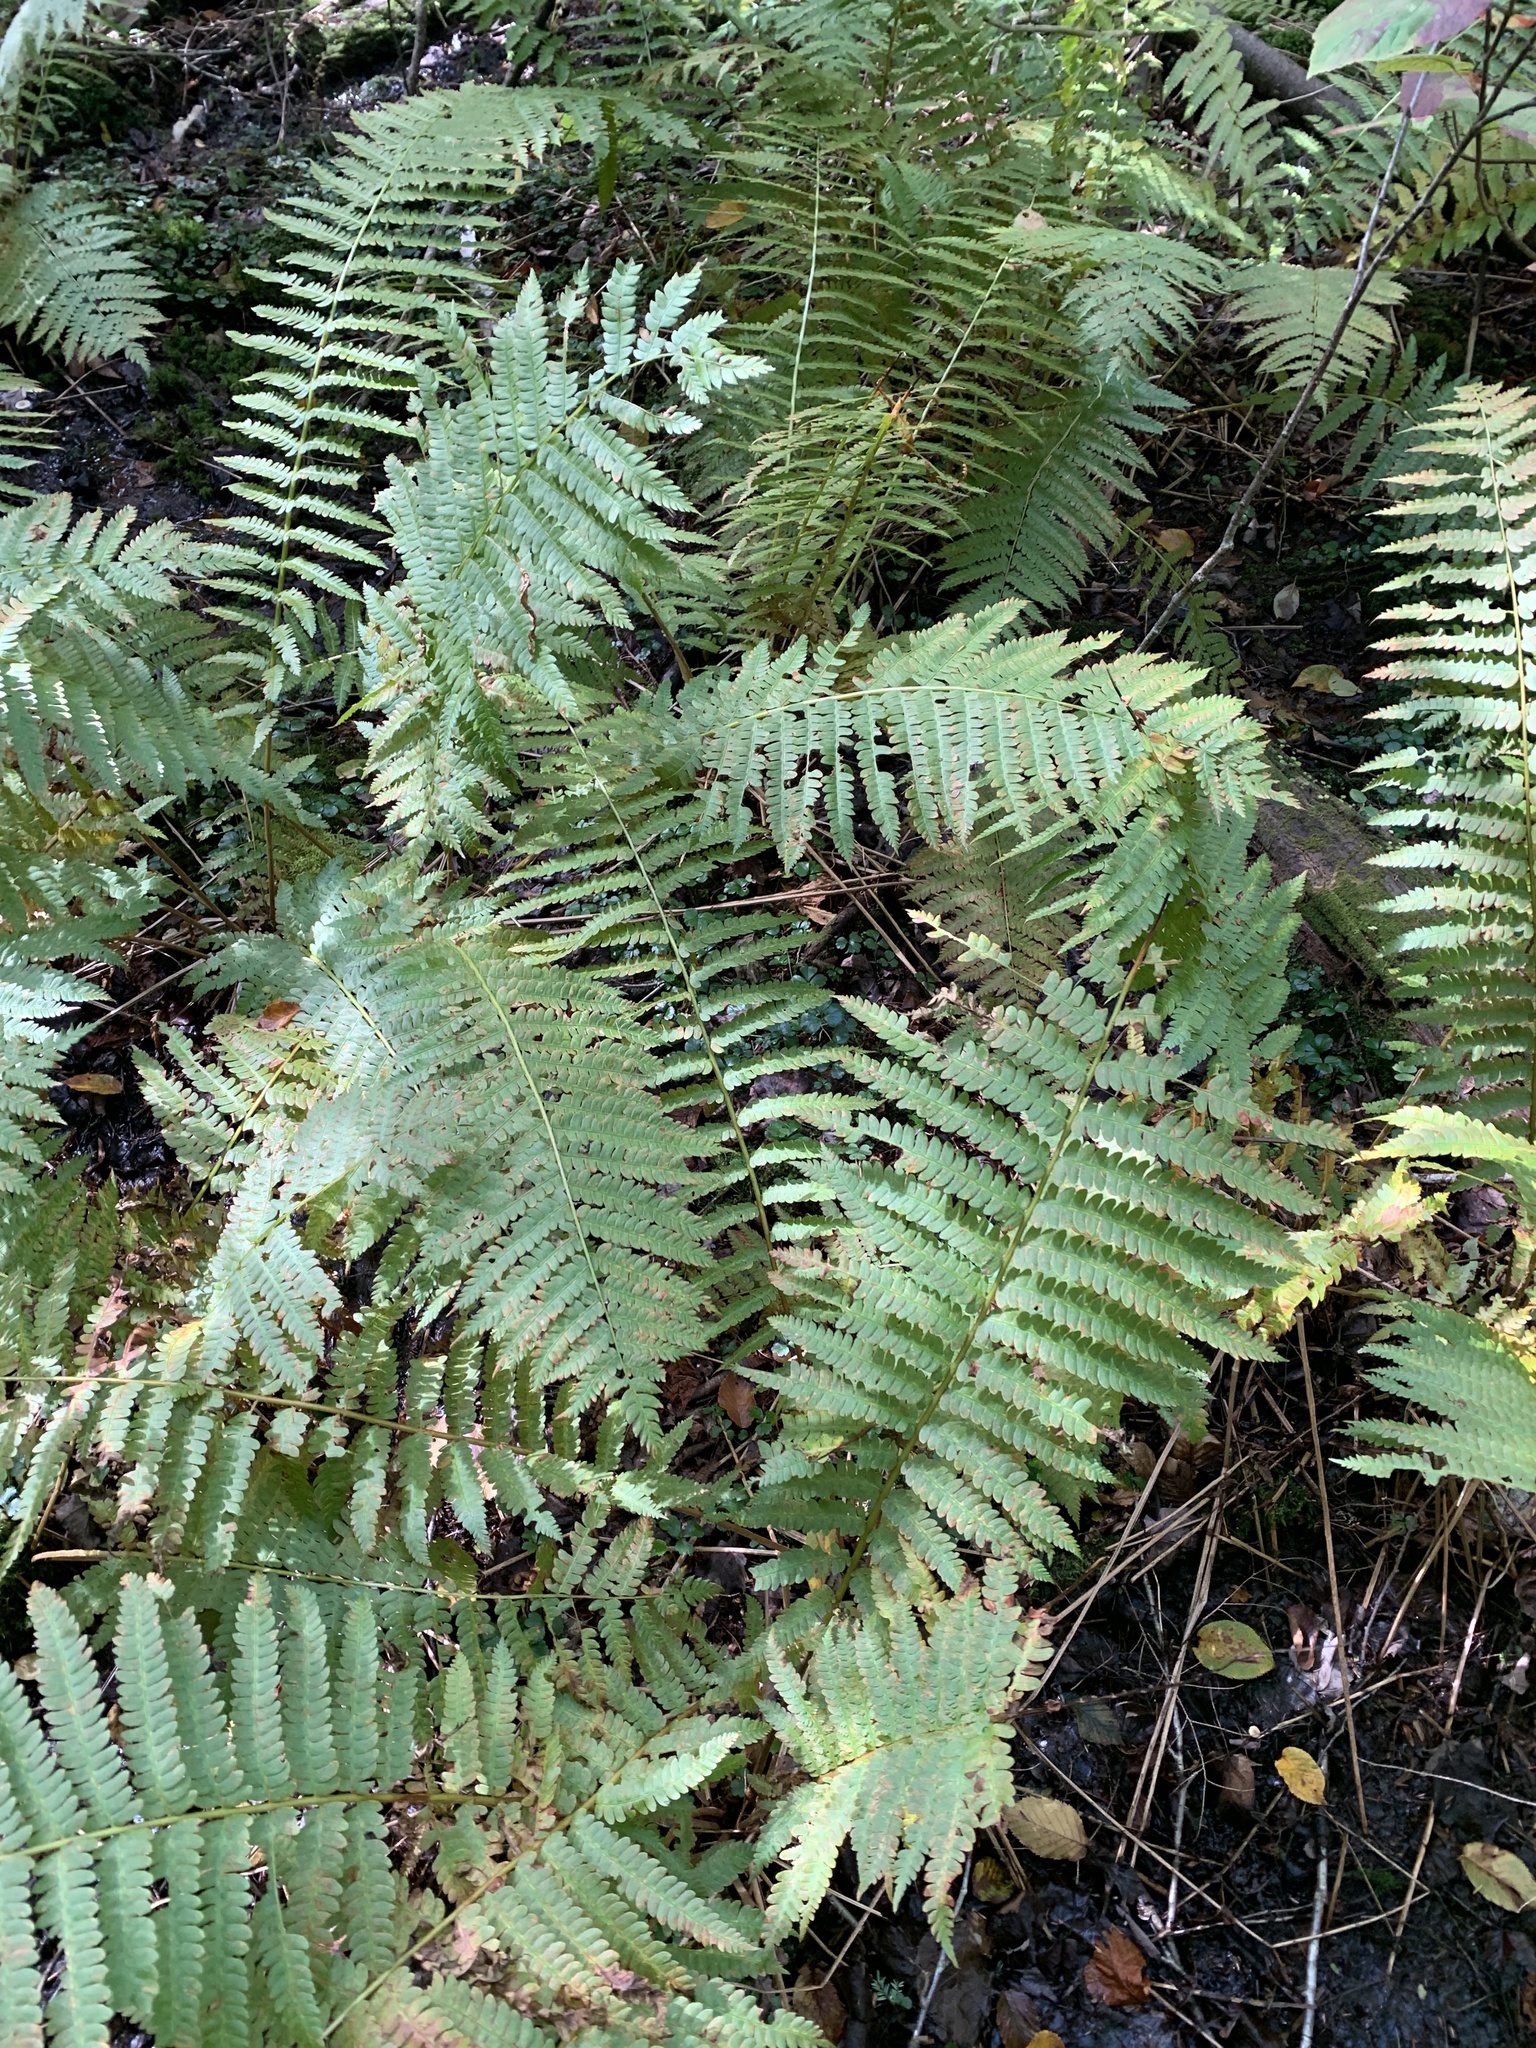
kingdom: Plantae
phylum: Tracheophyta
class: Polypodiopsida
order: Osmundales
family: Osmundaceae
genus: Osmundastrum
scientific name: Osmundastrum cinnamomeum
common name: Cinnamon fern
